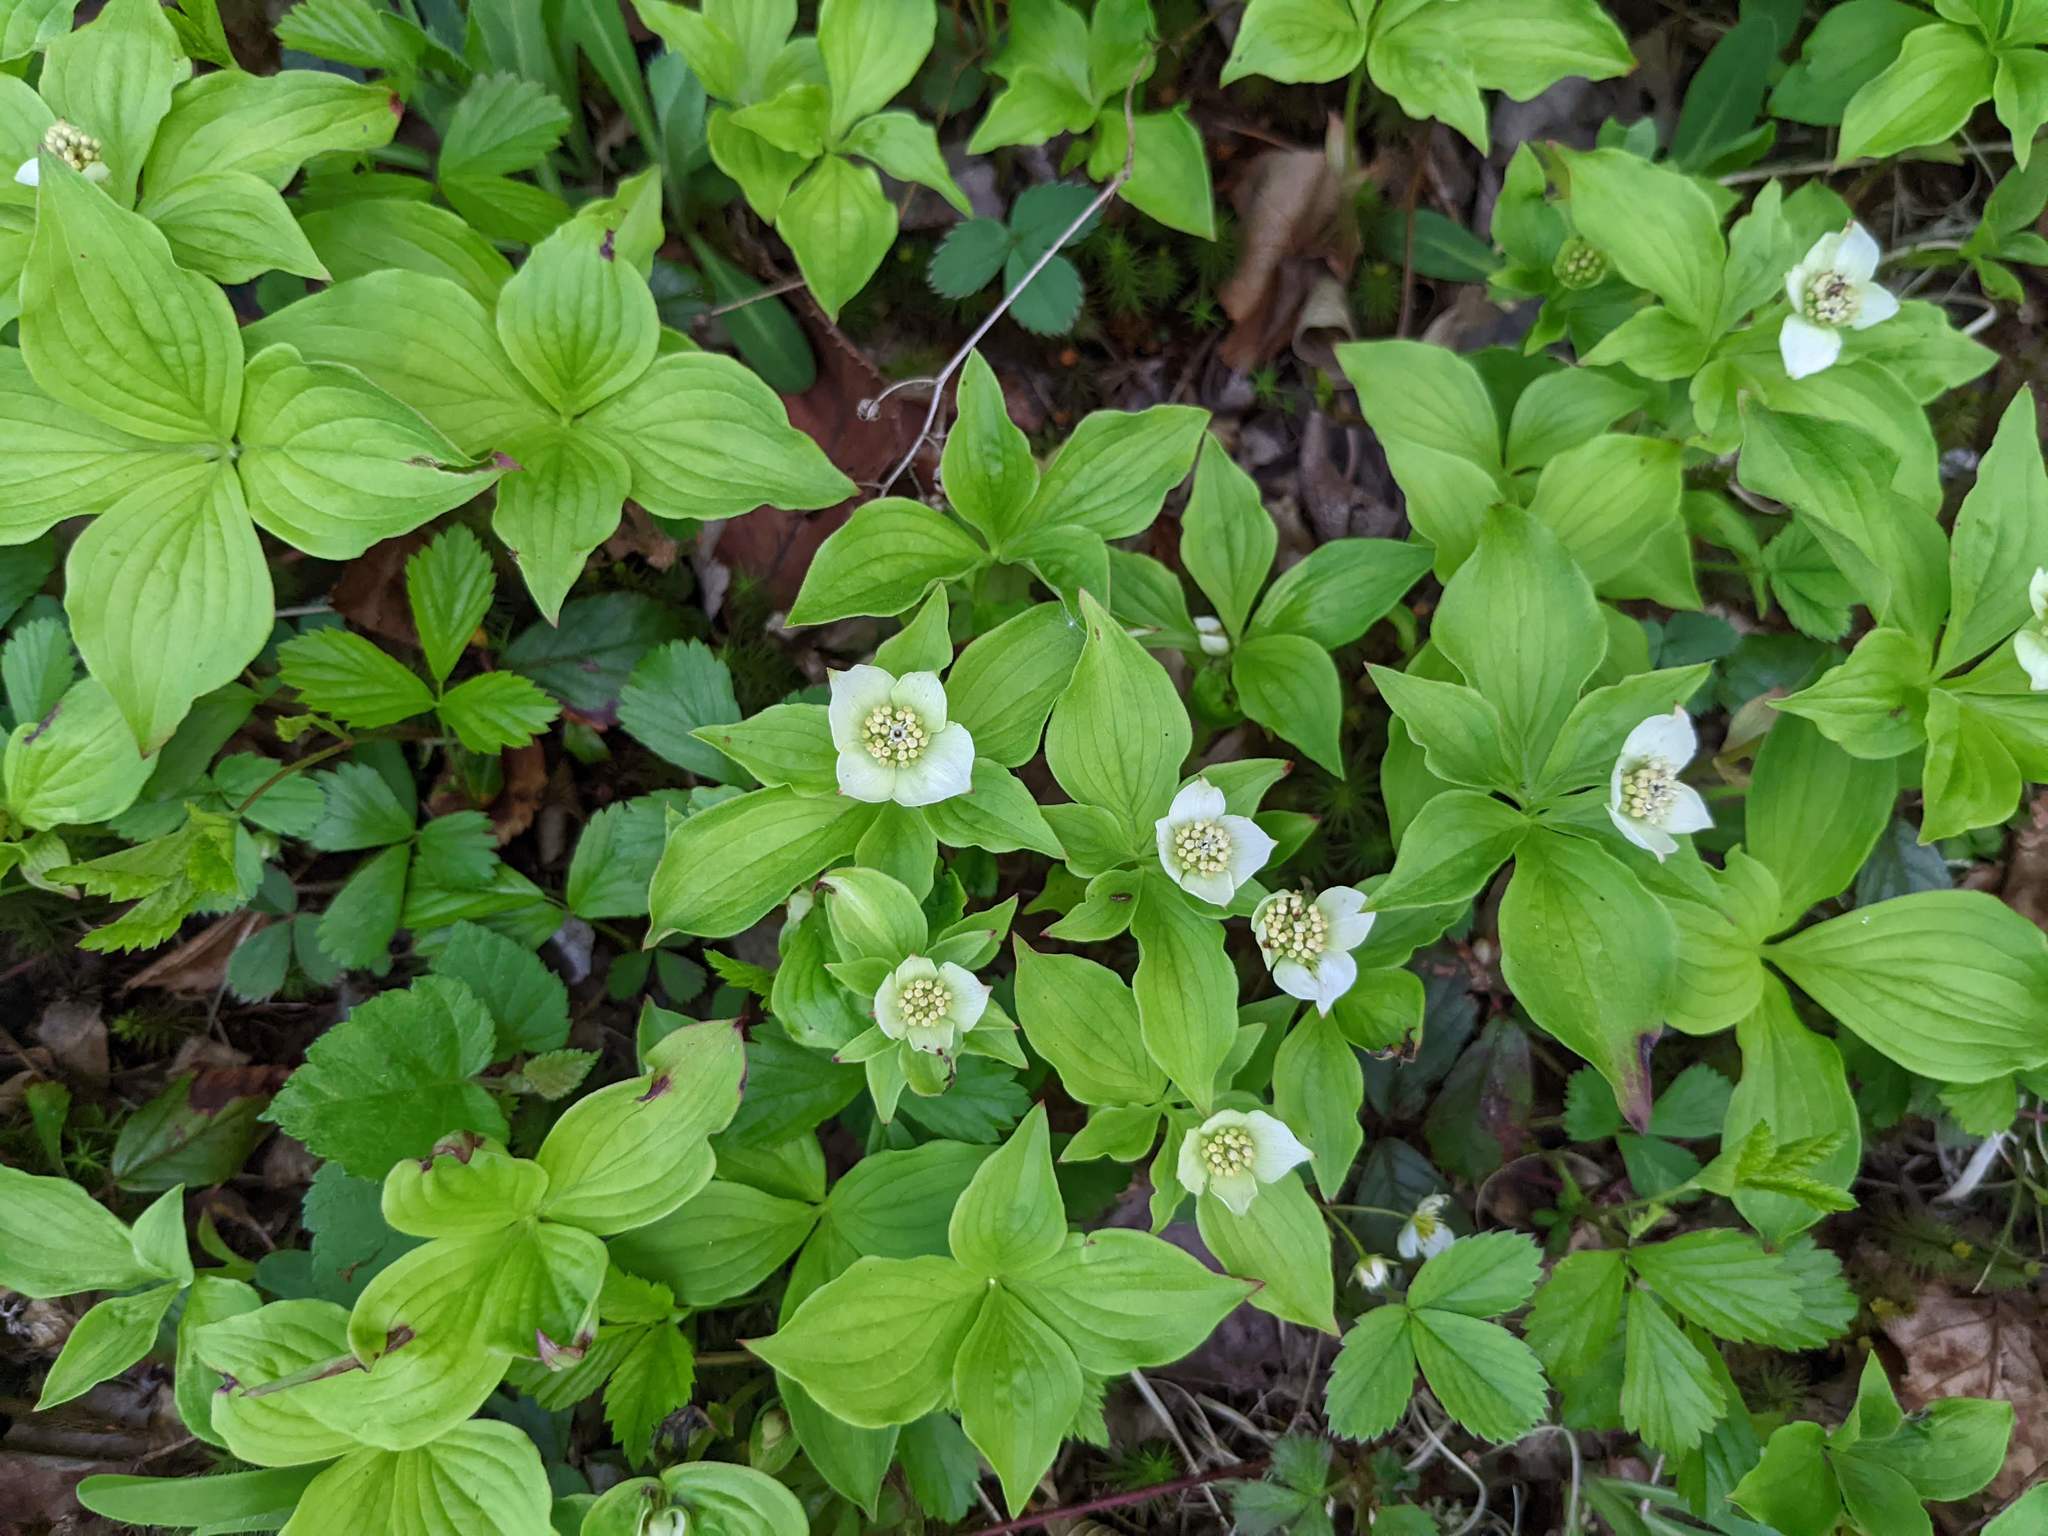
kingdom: Plantae
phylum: Tracheophyta
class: Magnoliopsida
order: Cornales
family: Cornaceae
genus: Cornus
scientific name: Cornus canadensis
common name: Creeping dogwood
